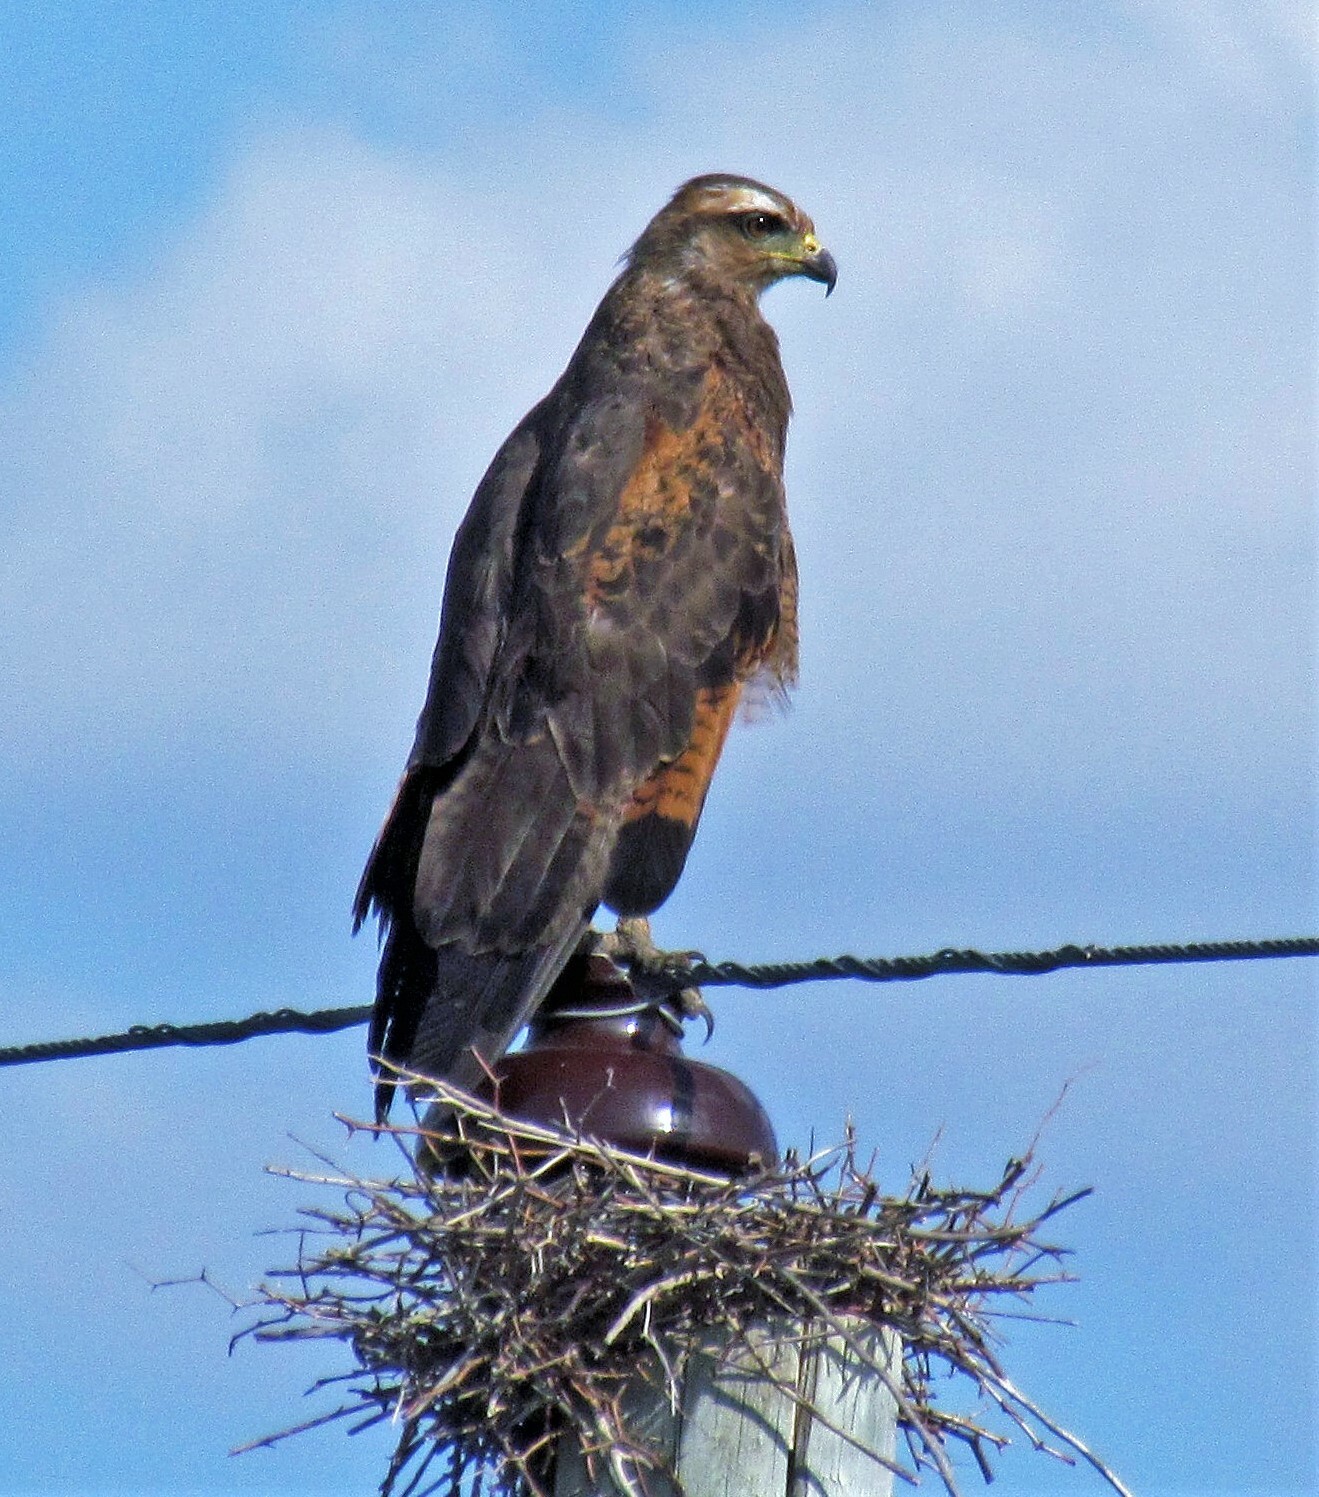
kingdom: Animalia
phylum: Chordata
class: Aves
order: Accipitriformes
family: Accipitridae
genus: Buteogallus
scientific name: Buteogallus meridionalis
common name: Savanna hawk
